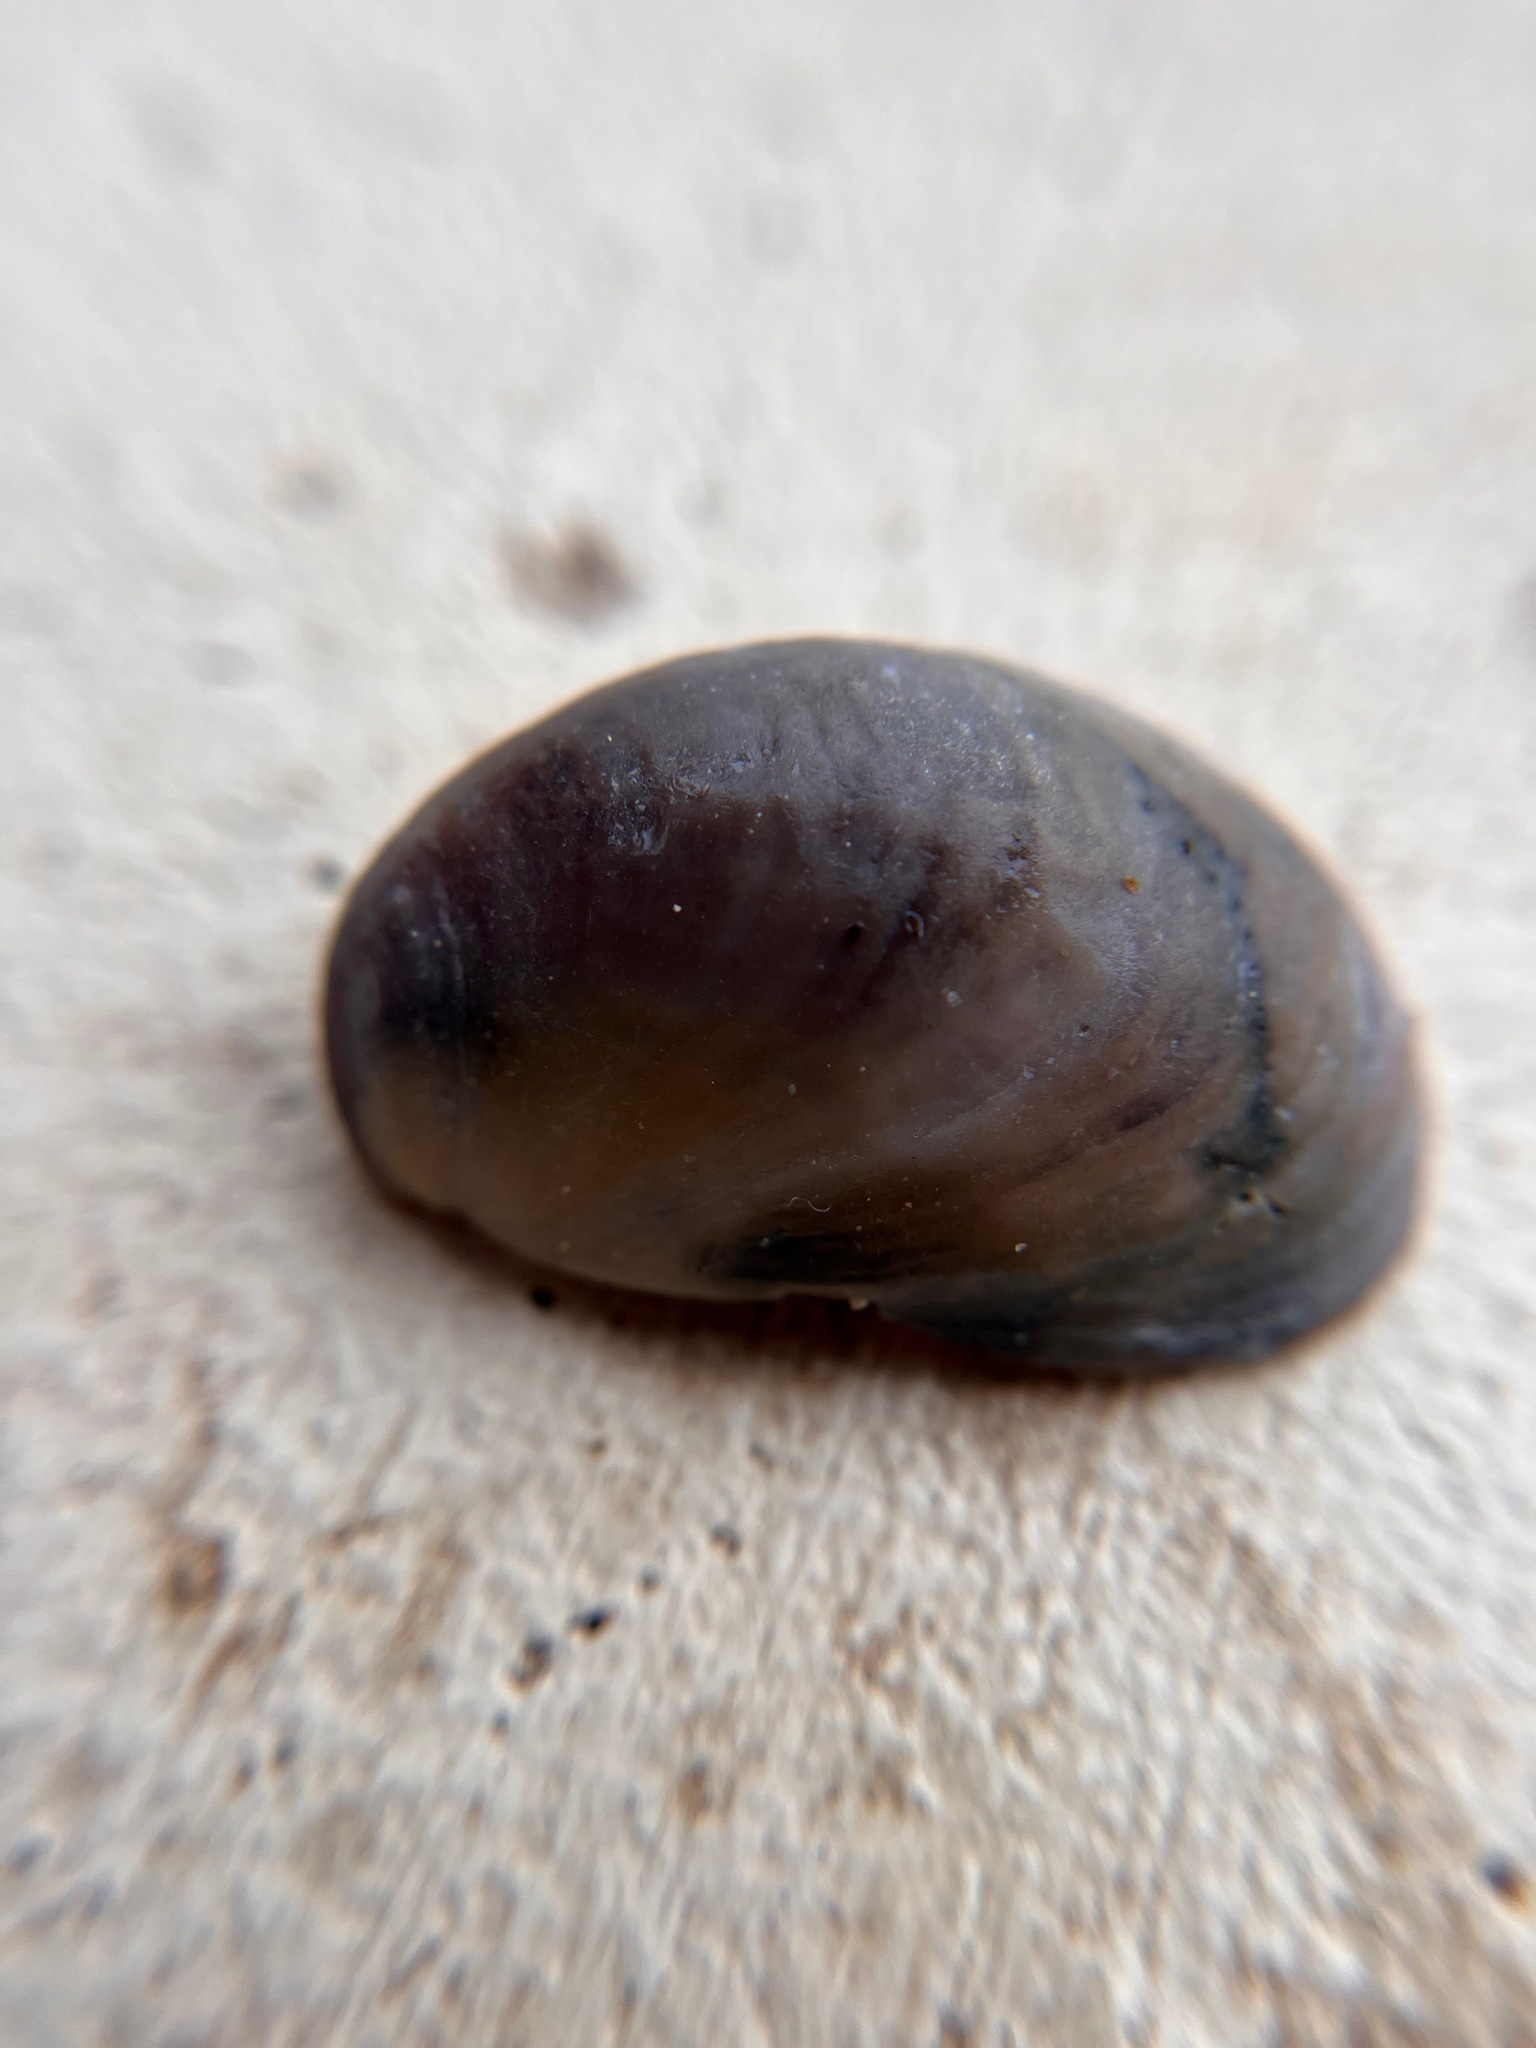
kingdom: Animalia
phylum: Mollusca
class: Gastropoda
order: Littorinimorpha
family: Calyptraeidae
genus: Crepidula
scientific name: Crepidula onyx
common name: Onyx slippersnail
